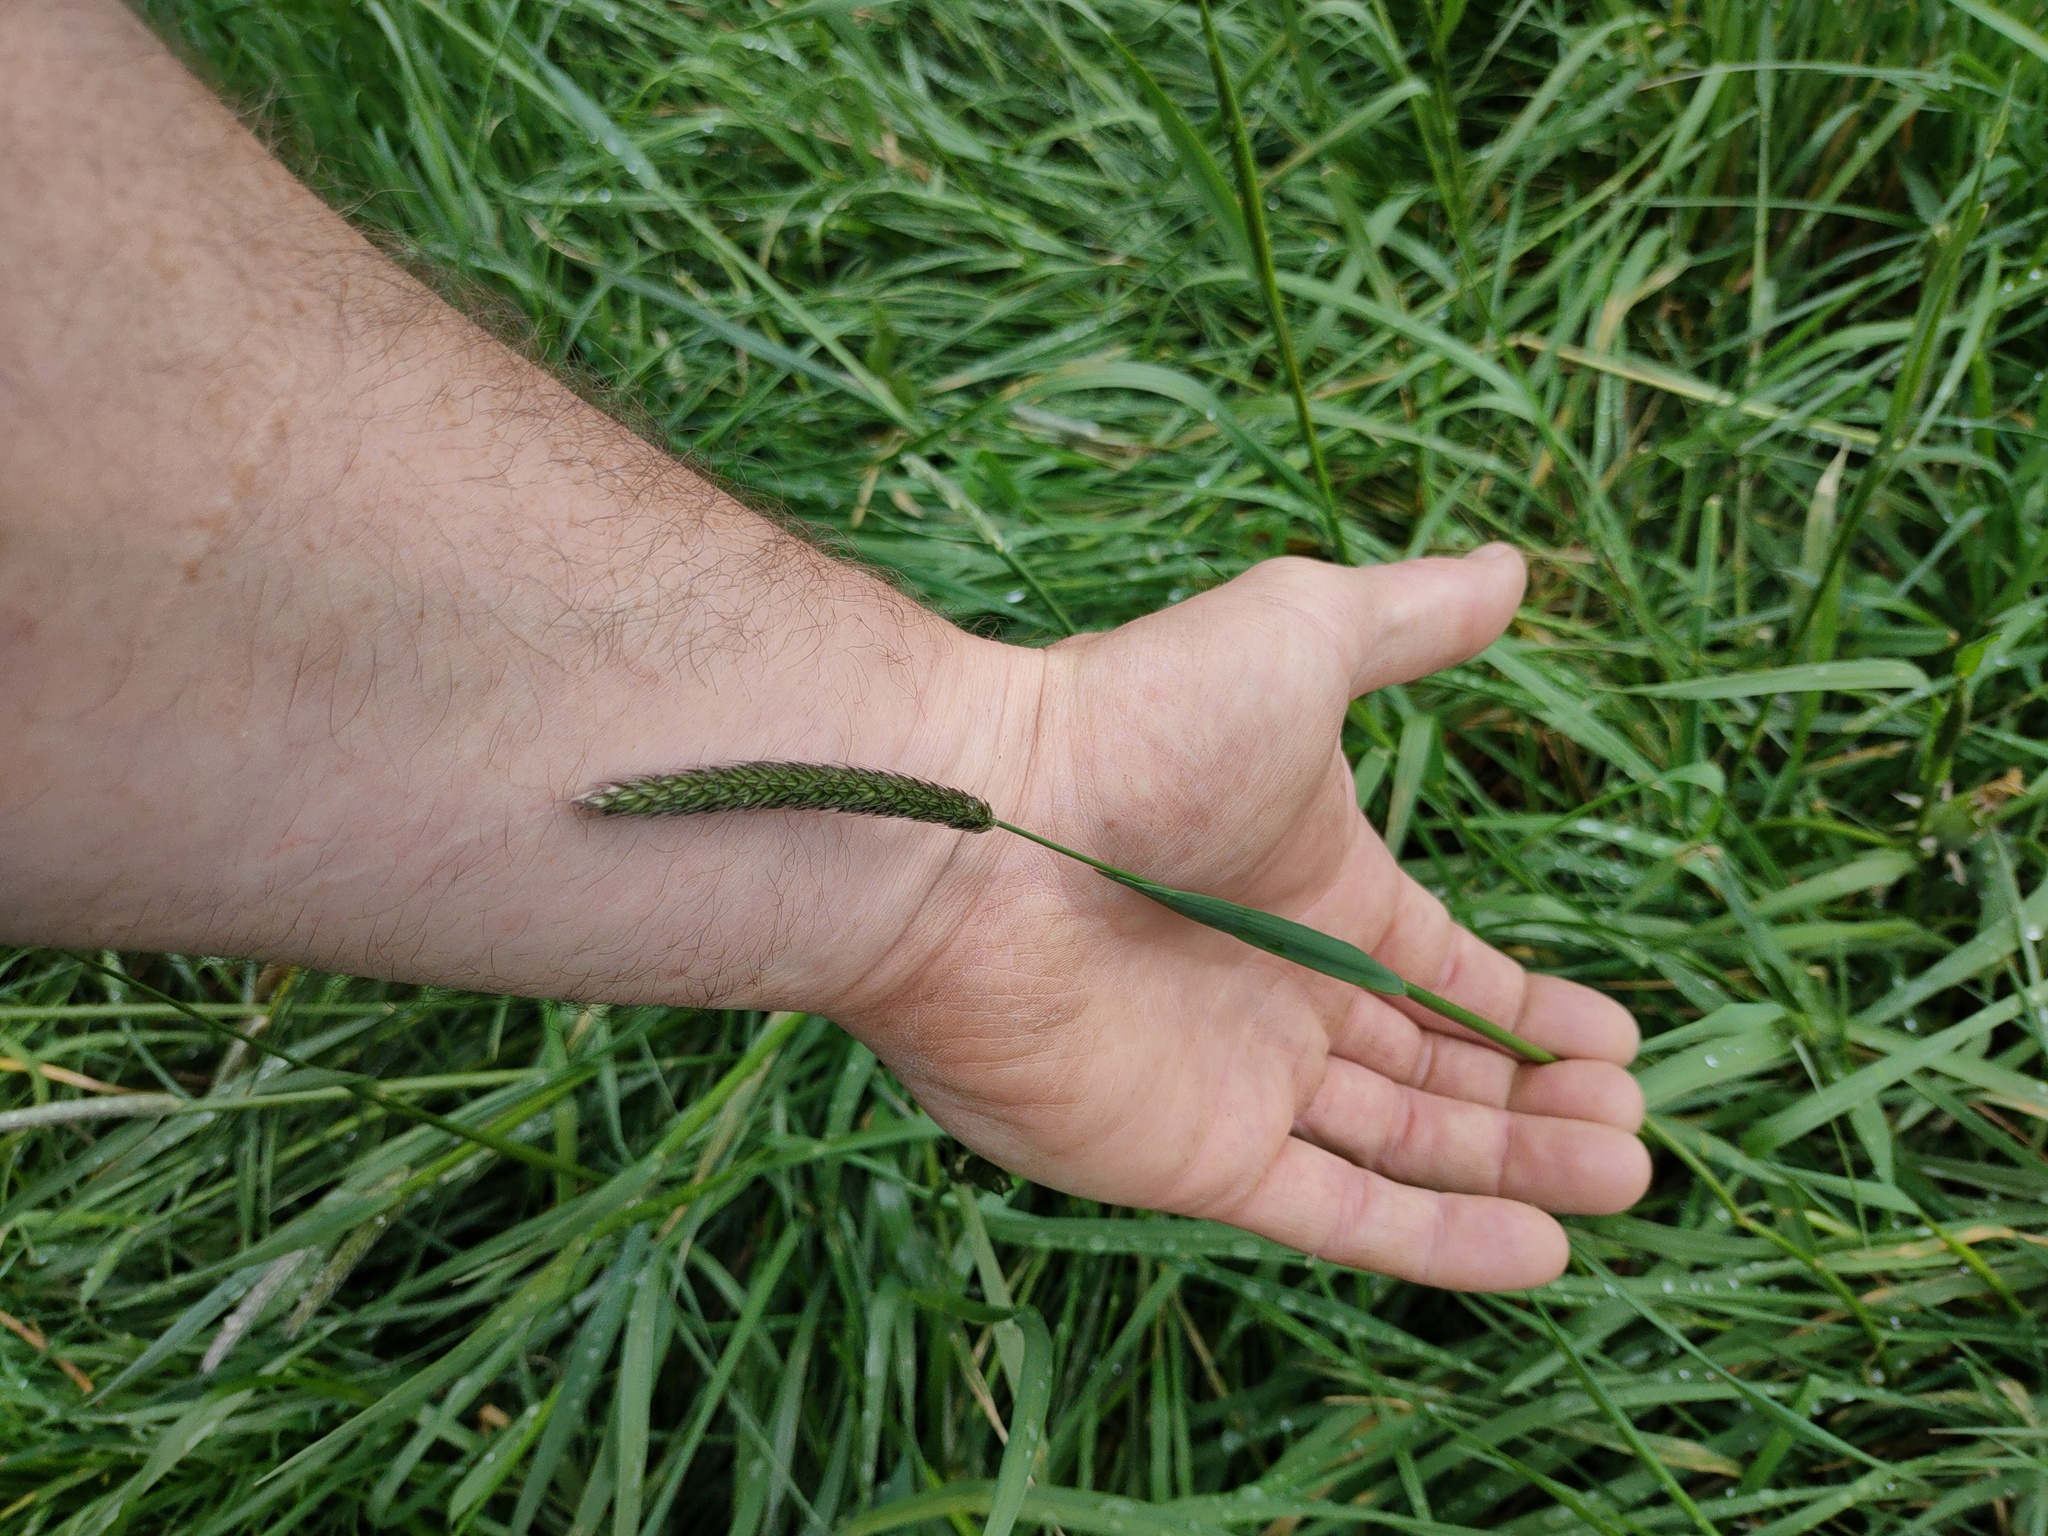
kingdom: Plantae
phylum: Tracheophyta
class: Liliopsida
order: Poales
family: Poaceae
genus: Alopecurus
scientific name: Alopecurus pratensis
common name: Meadow foxtail
